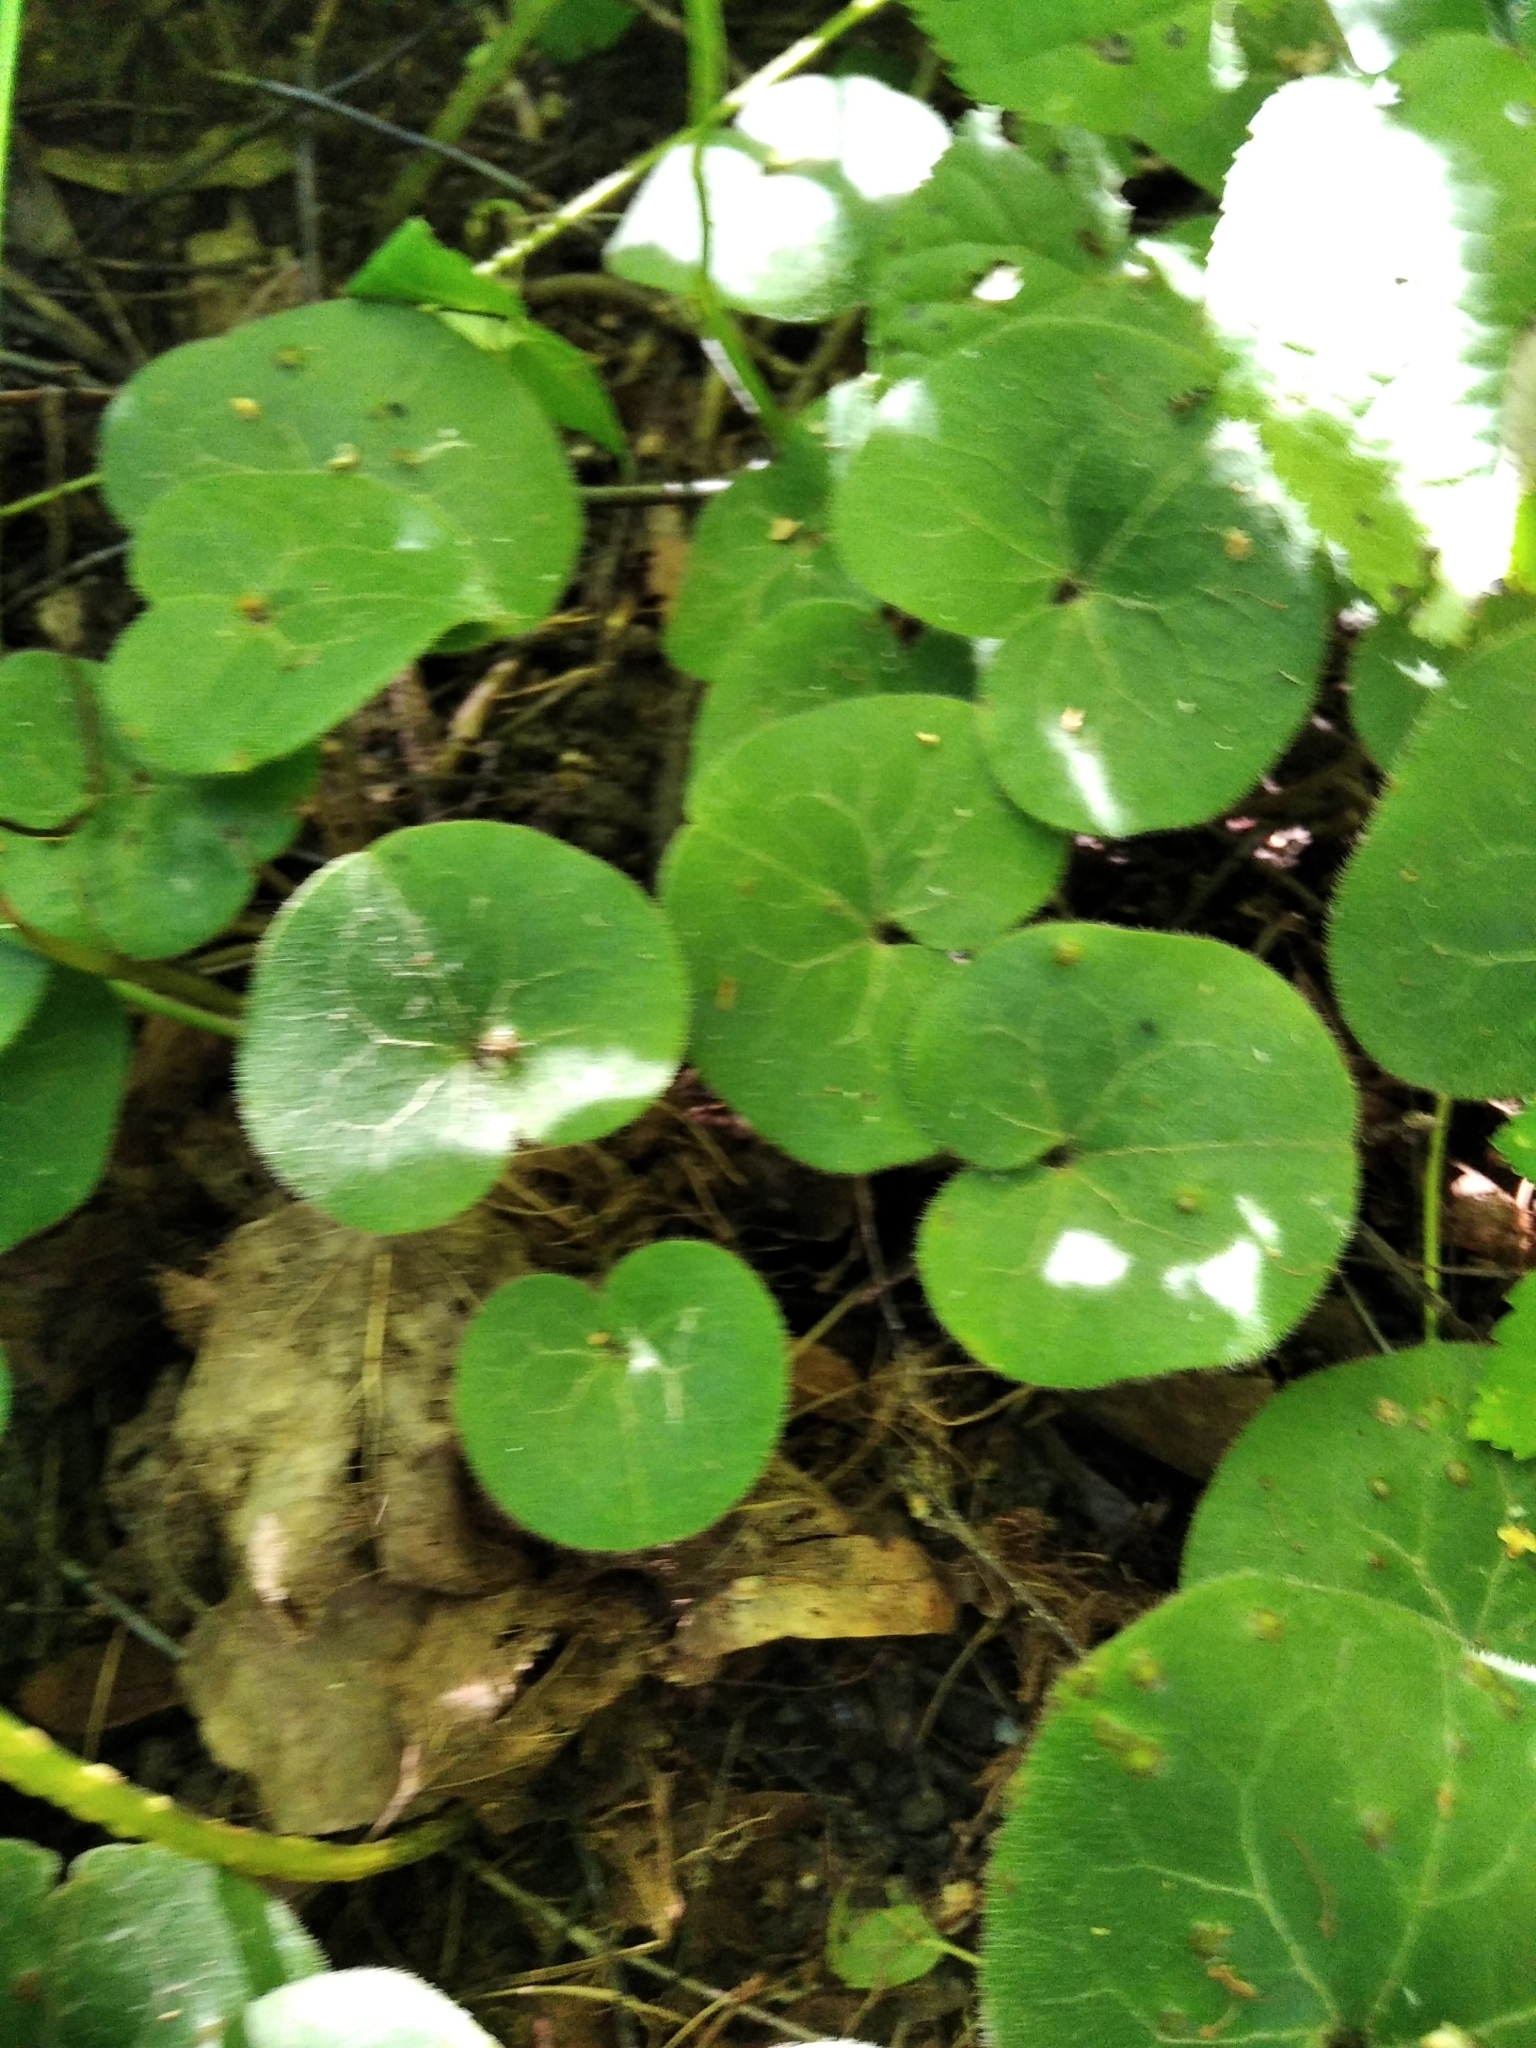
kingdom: Plantae
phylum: Tracheophyta
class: Magnoliopsida
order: Piperales
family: Aristolochiaceae
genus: Asarum
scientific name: Asarum europaeum
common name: Asarabacca
